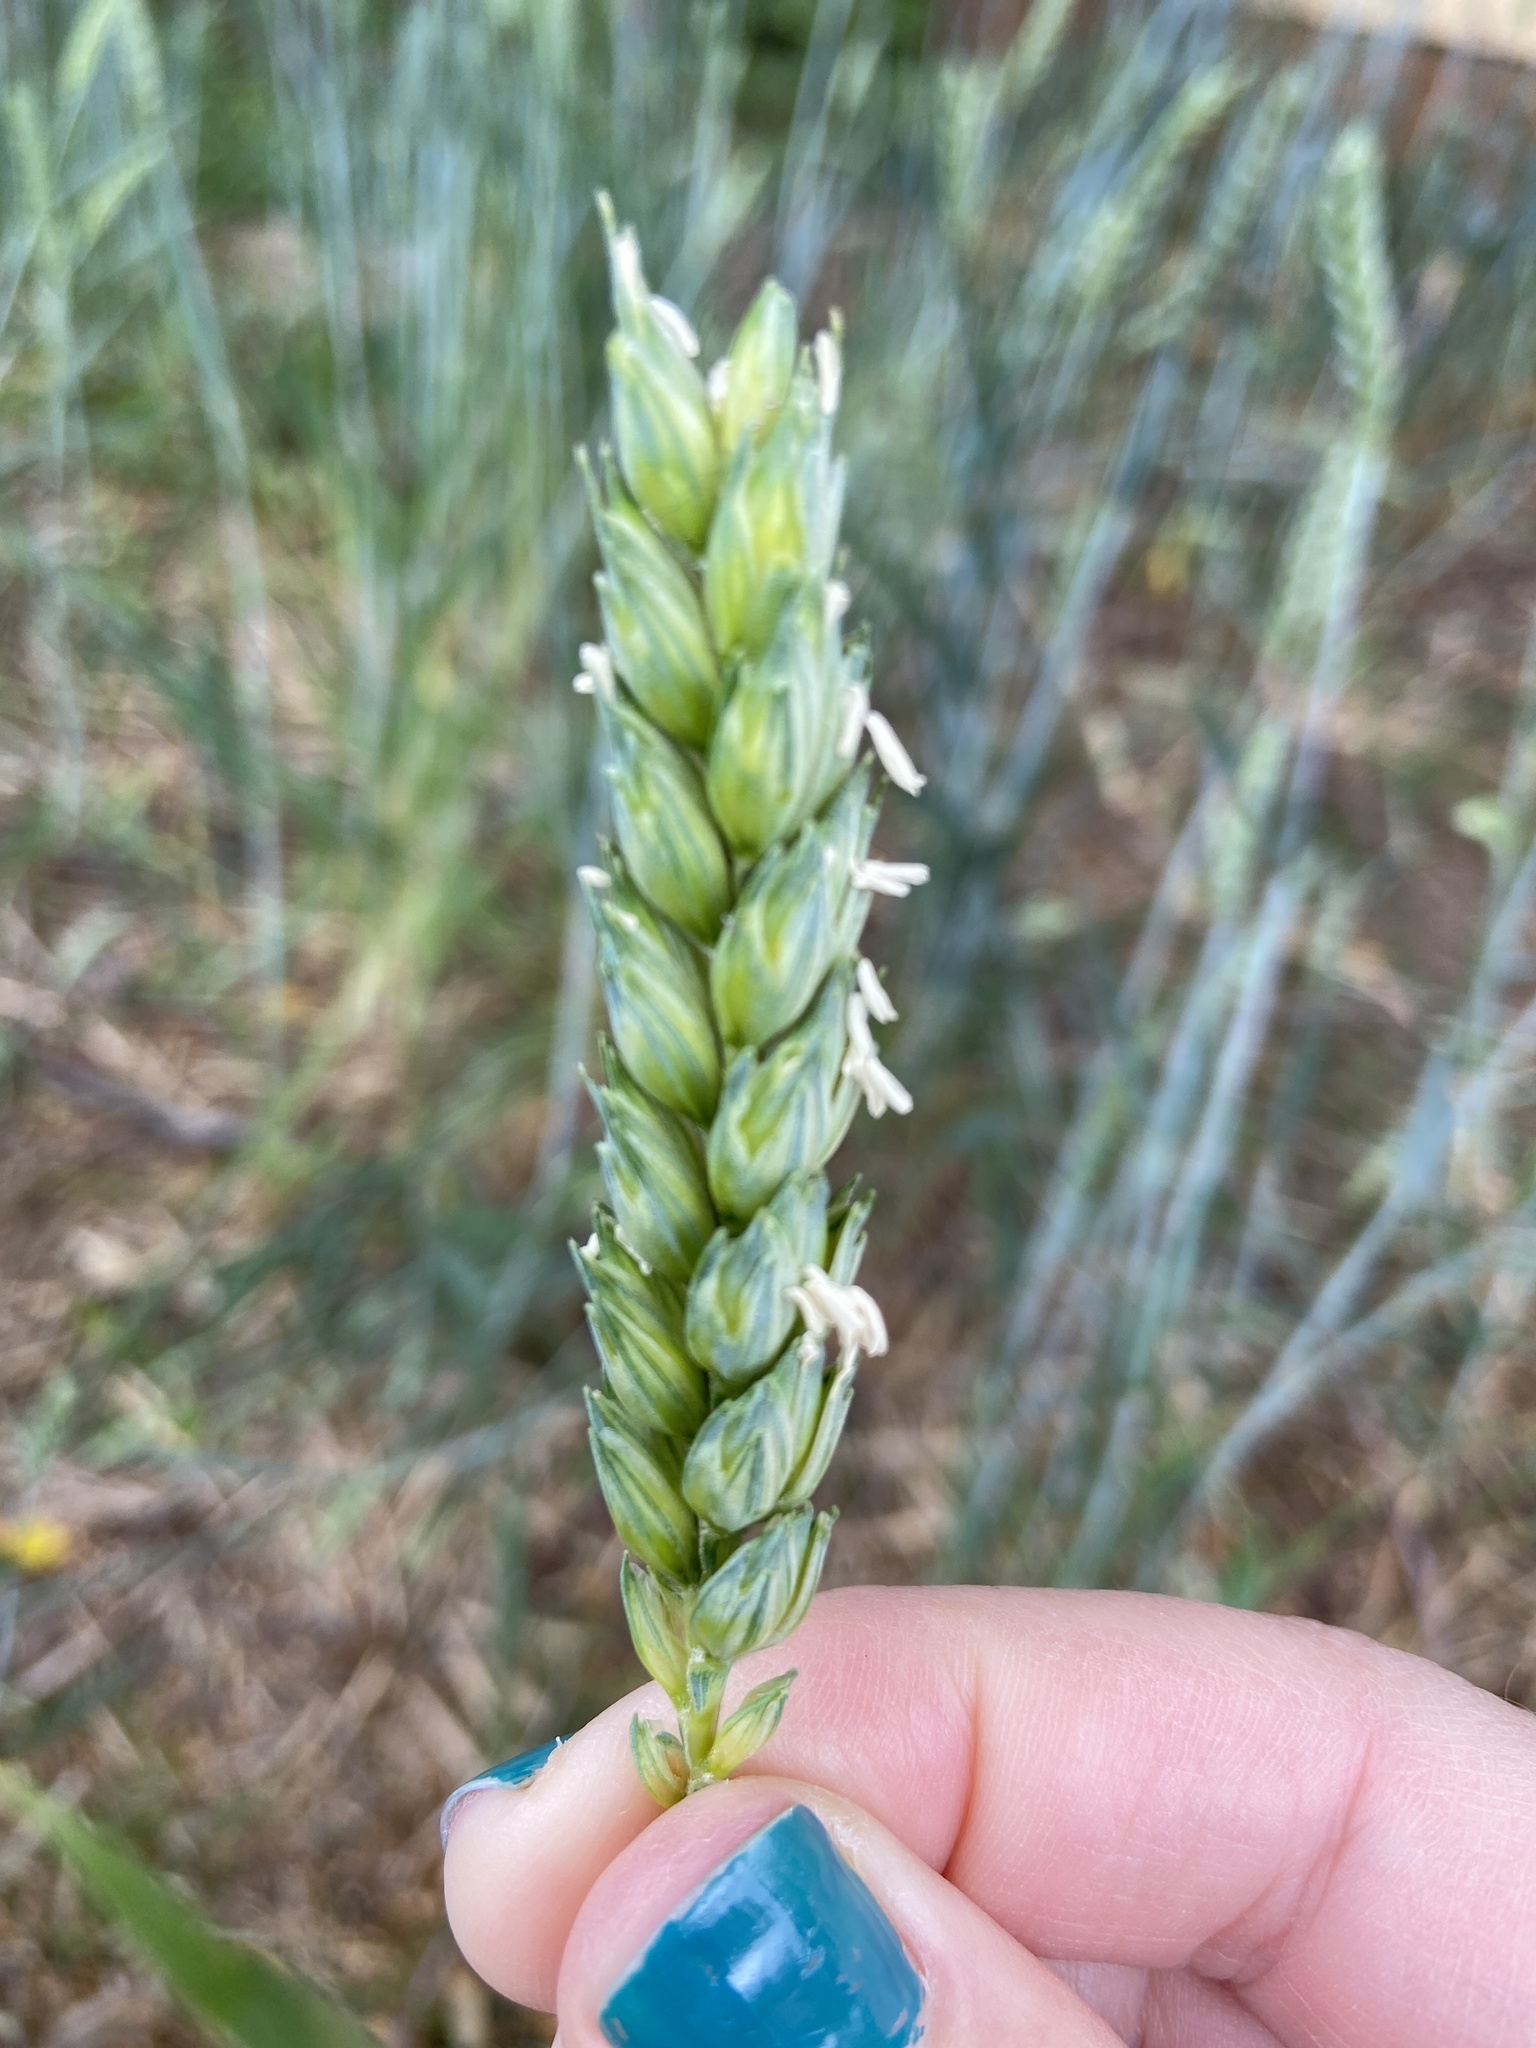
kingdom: Plantae
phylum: Tracheophyta
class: Liliopsida
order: Poales
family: Poaceae
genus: Triticum
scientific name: Triticum aestivum
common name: Common wheat
